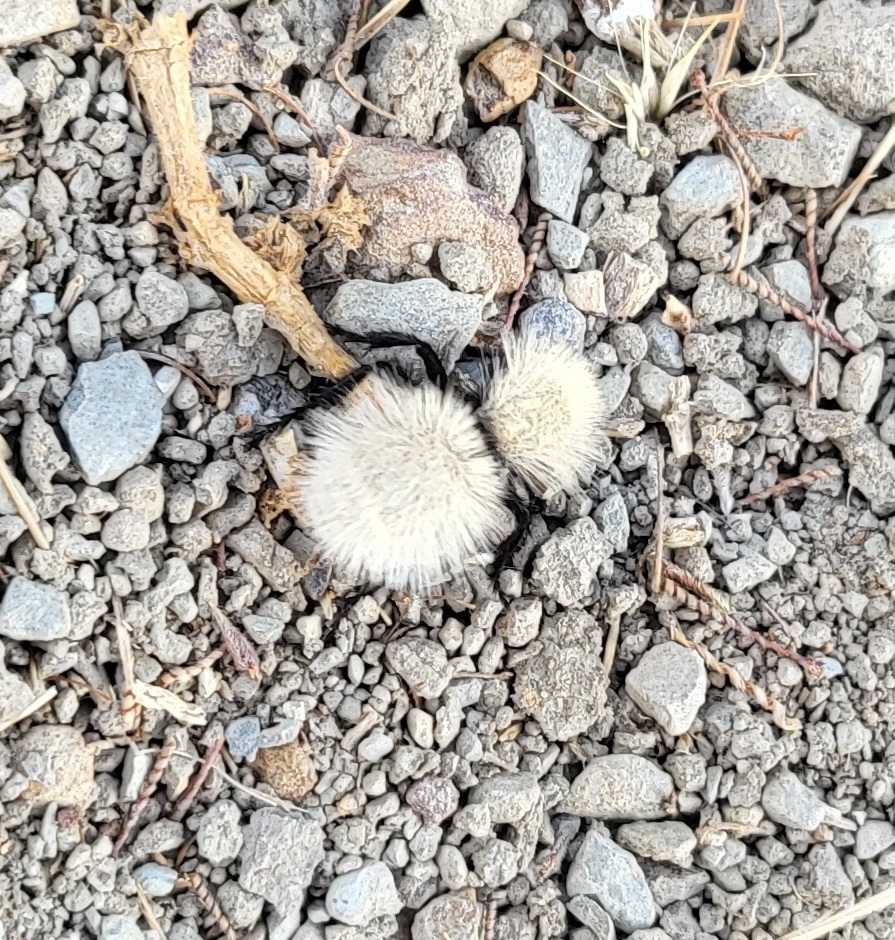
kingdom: Animalia
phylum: Arthropoda
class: Insecta
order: Hymenoptera
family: Mutillidae
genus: Dasymutilla
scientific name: Dasymutilla
